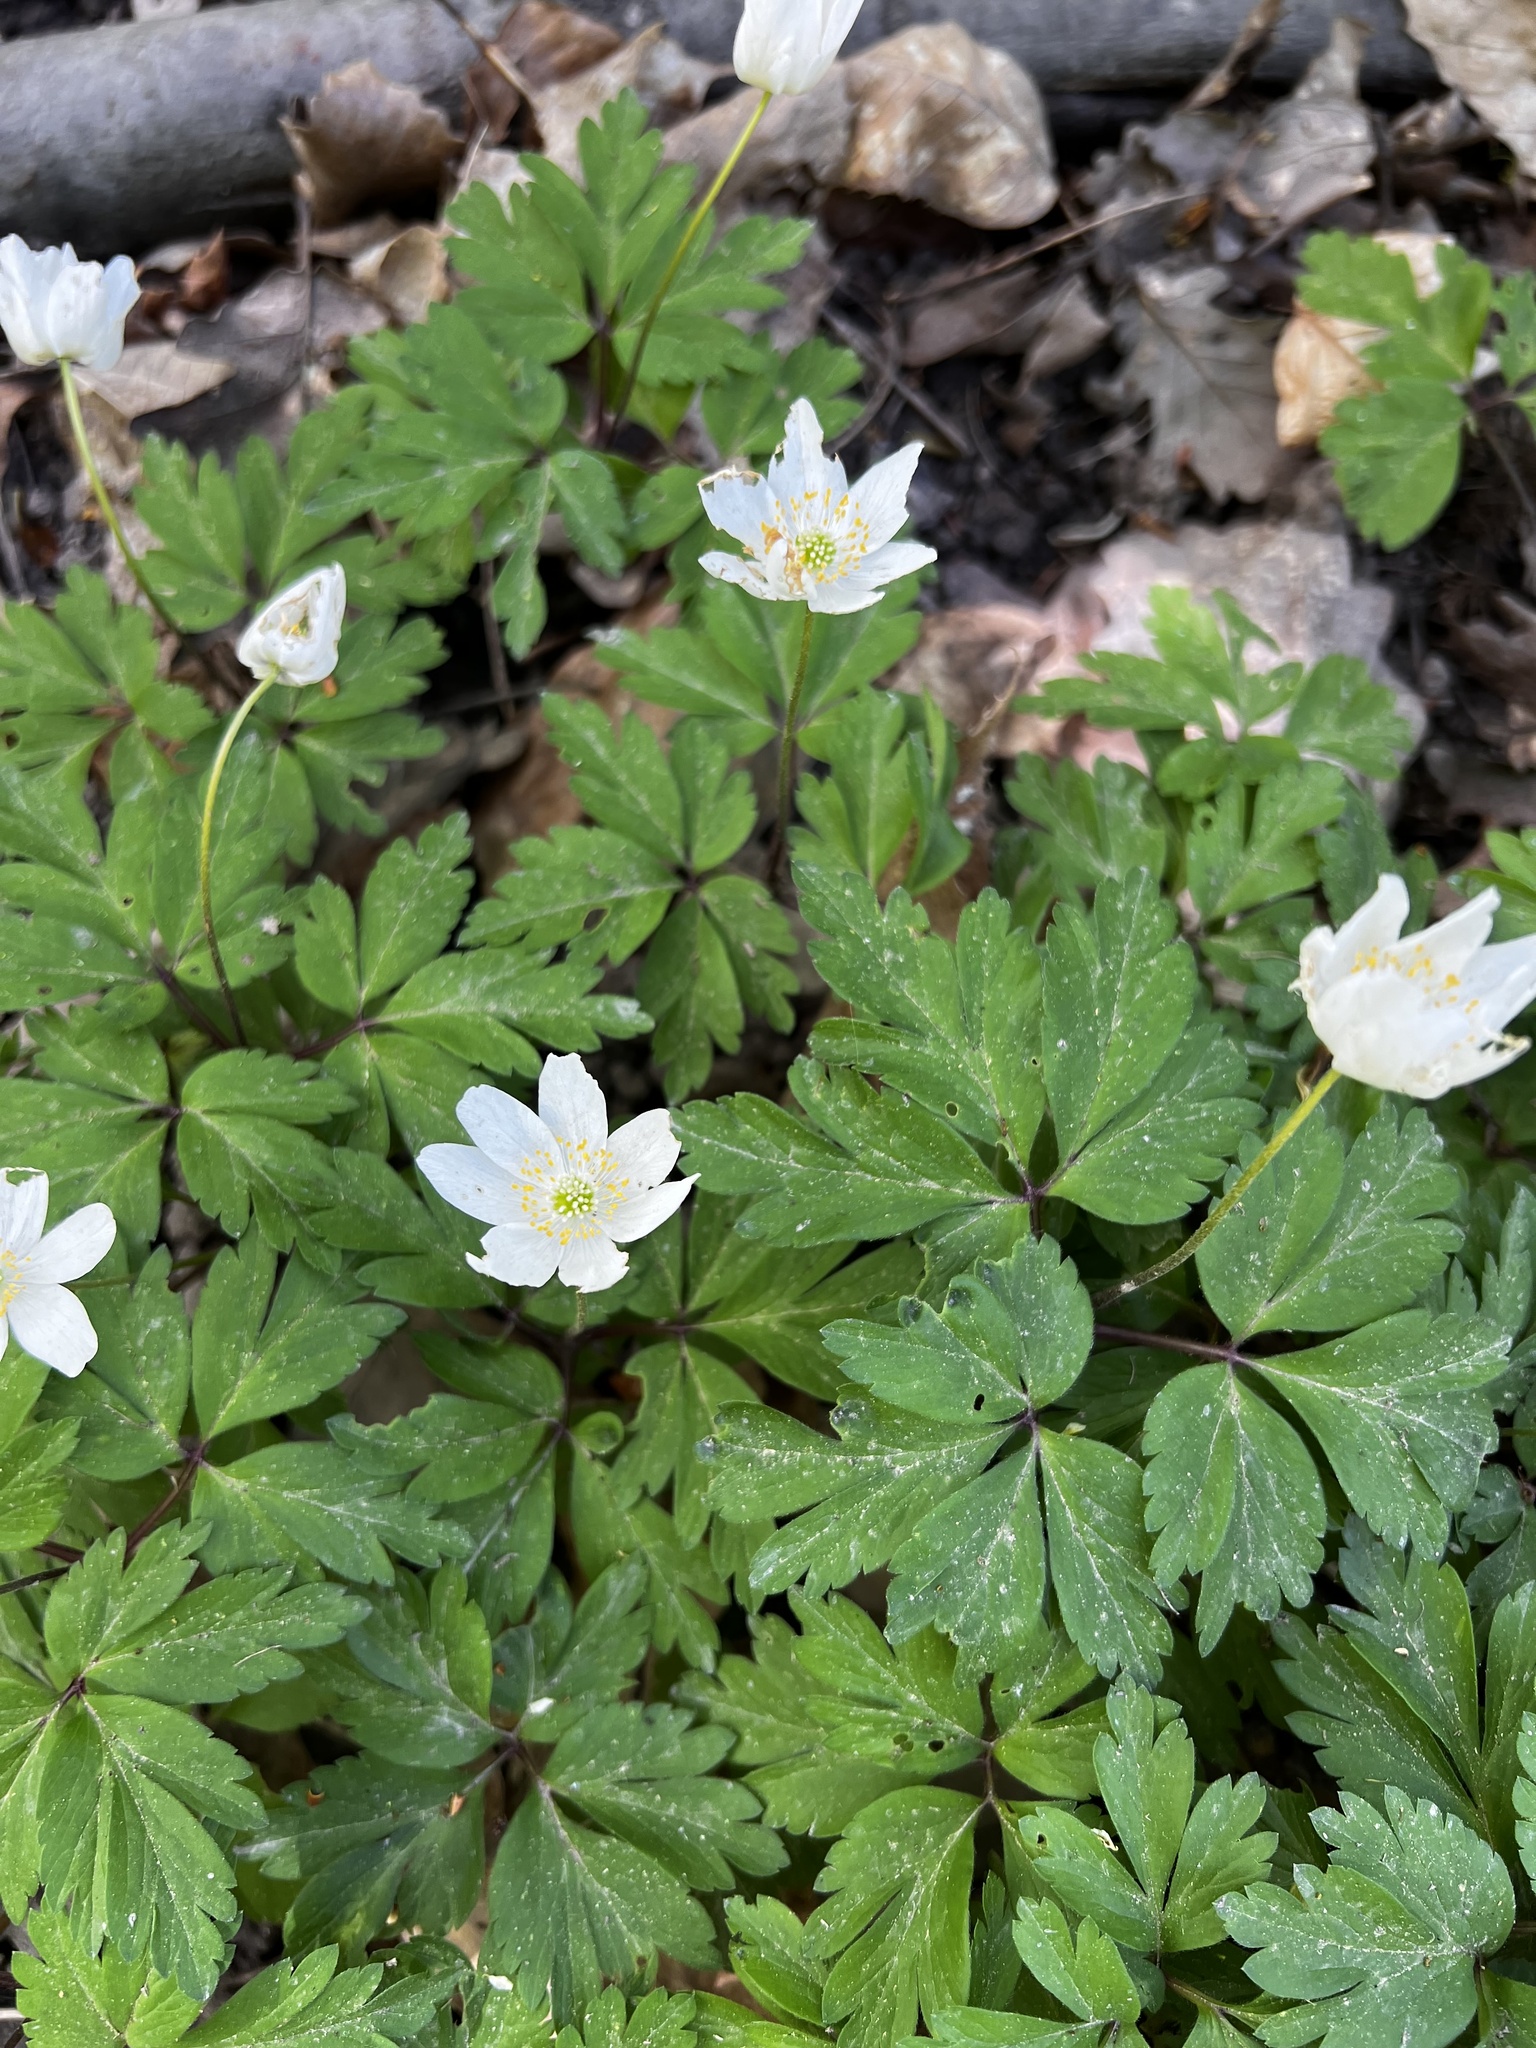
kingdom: Plantae
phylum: Tracheophyta
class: Magnoliopsida
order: Ranunculales
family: Ranunculaceae
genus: Anemone
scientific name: Anemone nemorosa
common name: Wood anemone
